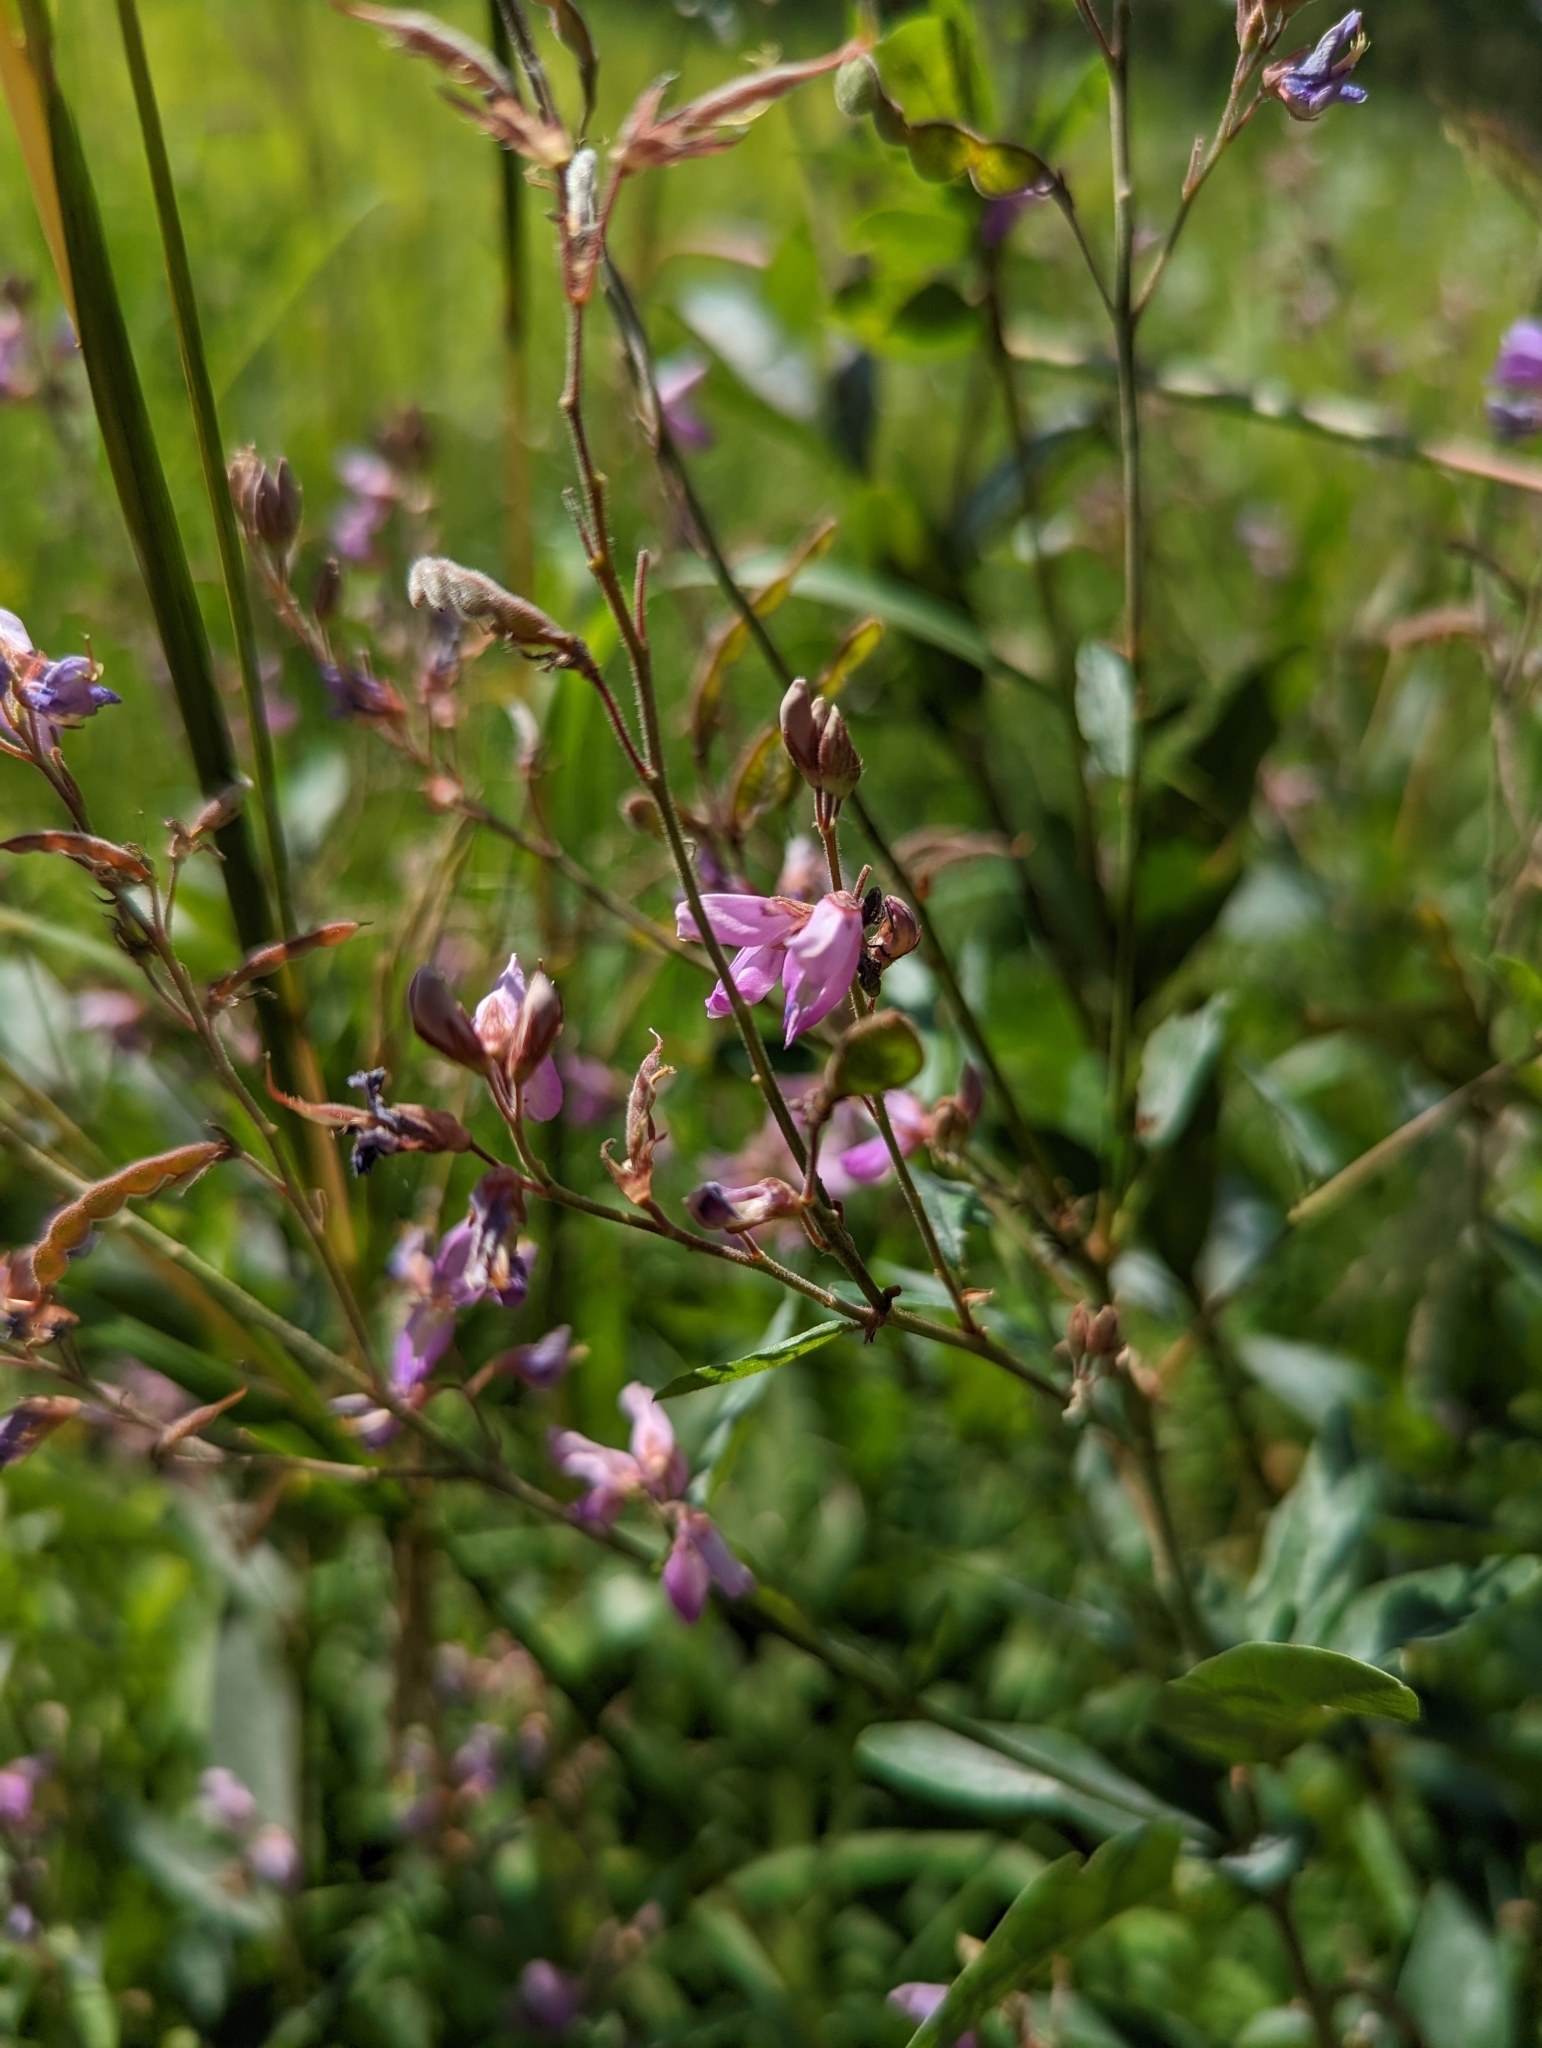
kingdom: Plantae
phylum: Tracheophyta
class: Magnoliopsida
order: Fabales
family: Fabaceae
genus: Desmodium
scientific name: Desmodium canadense
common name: Canada tick-trefoil
